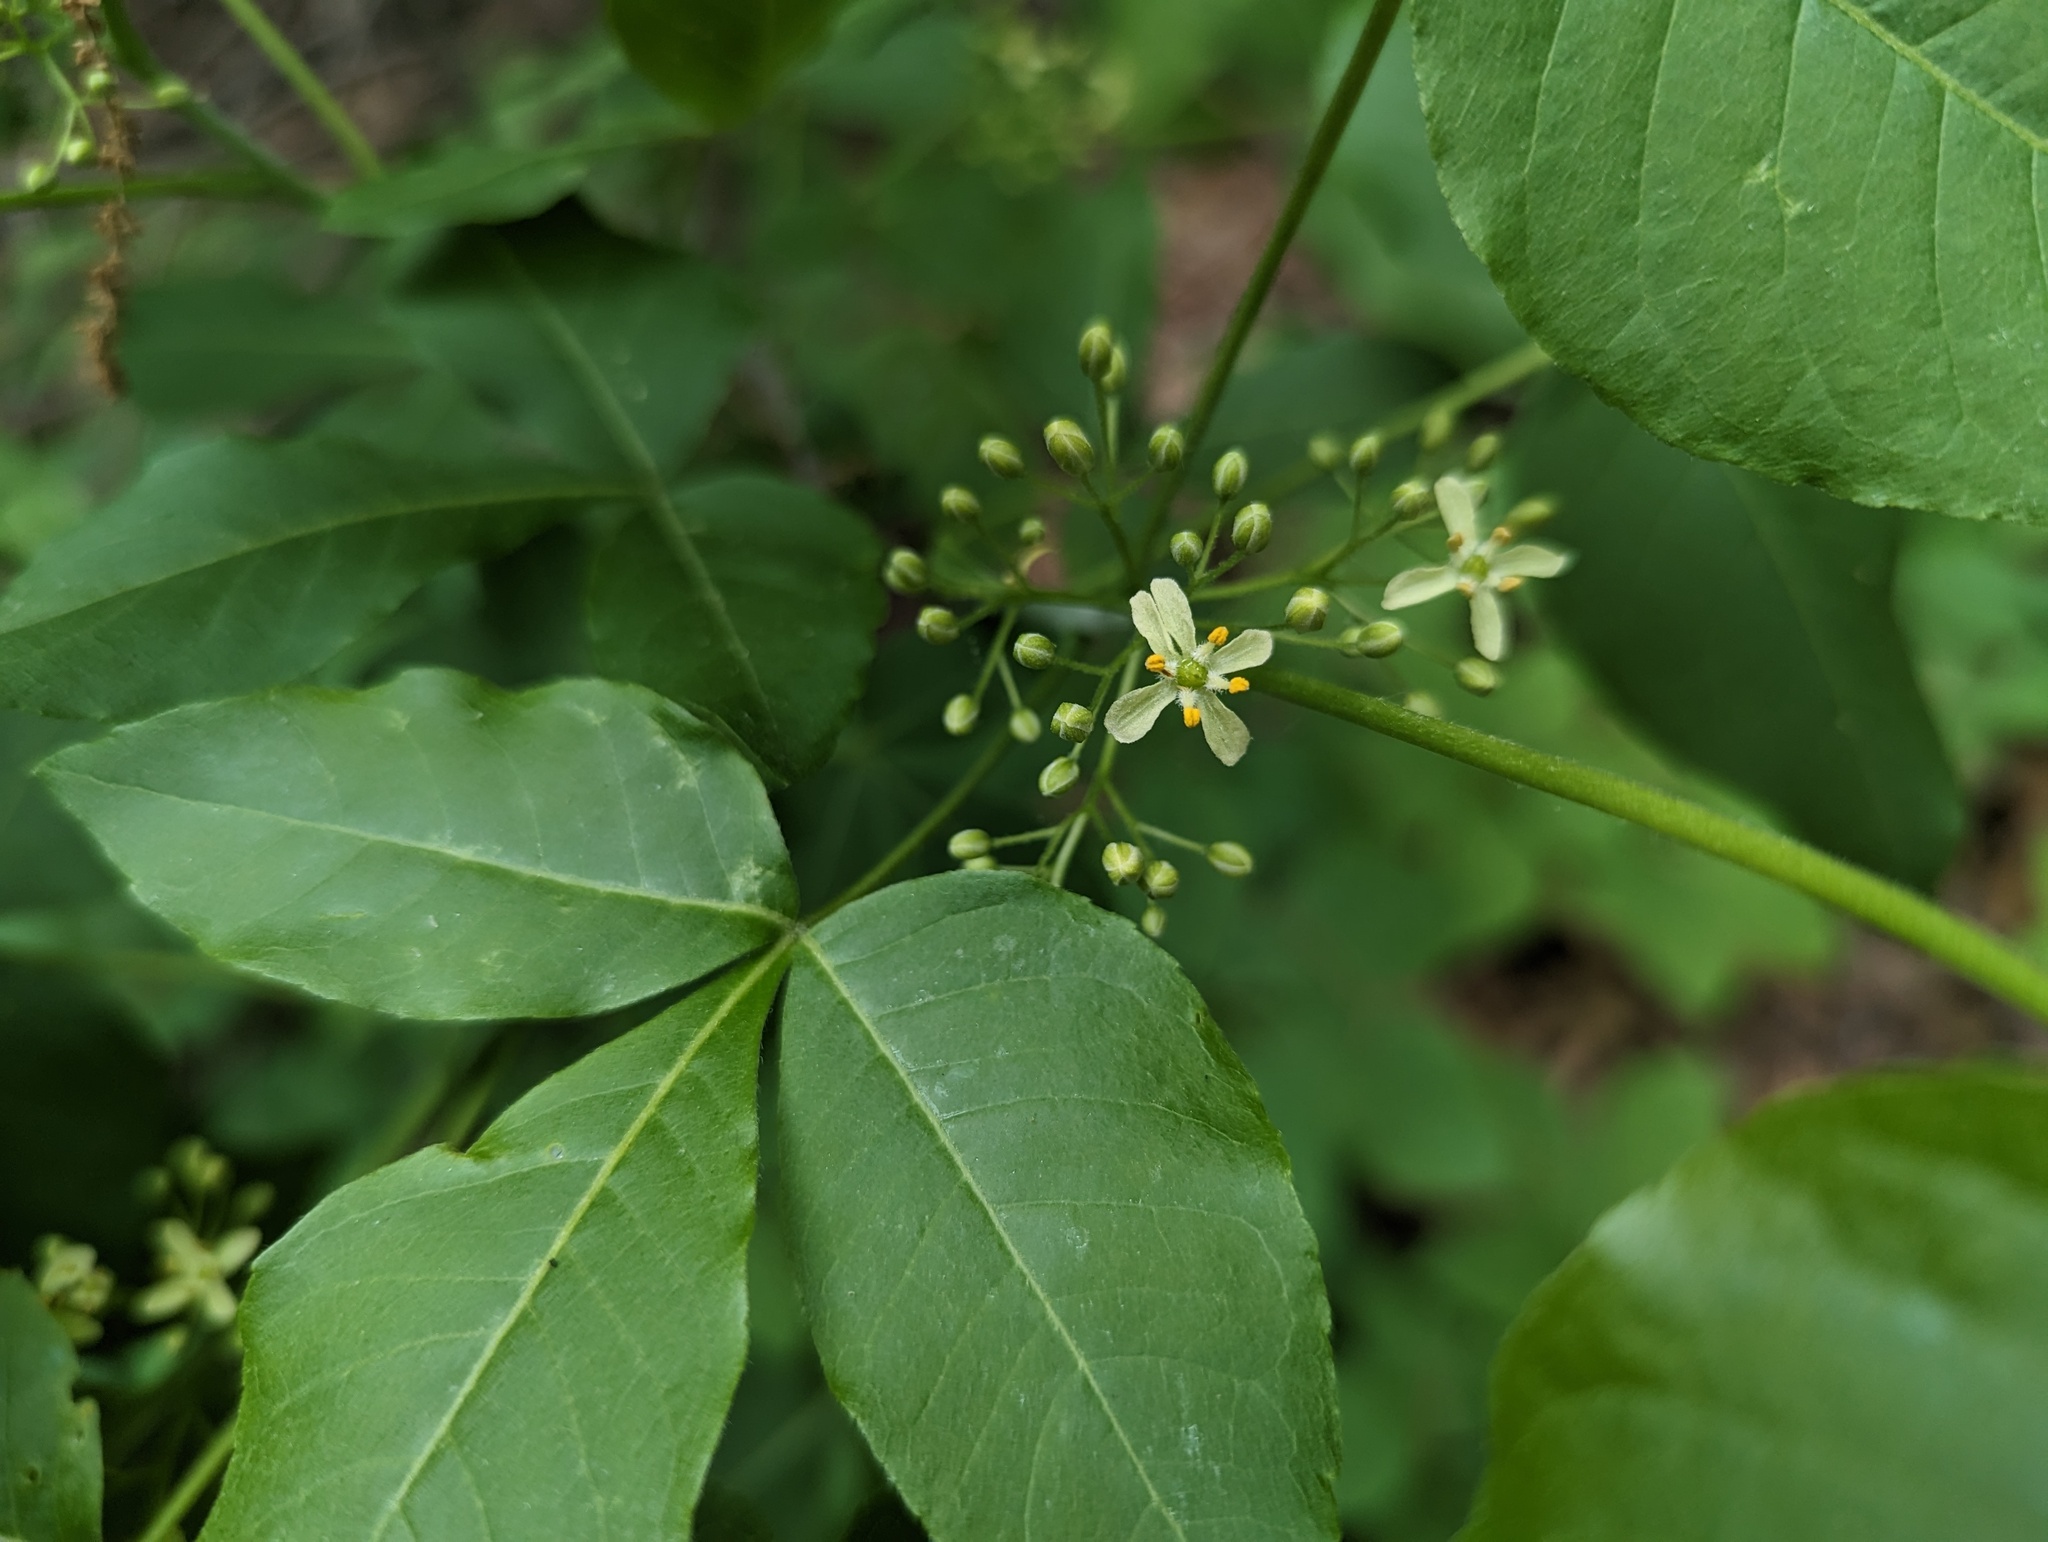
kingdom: Plantae
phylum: Tracheophyta
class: Magnoliopsida
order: Sapindales
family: Rutaceae
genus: Ptelea
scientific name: Ptelea trifoliata
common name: Common hop-tree
